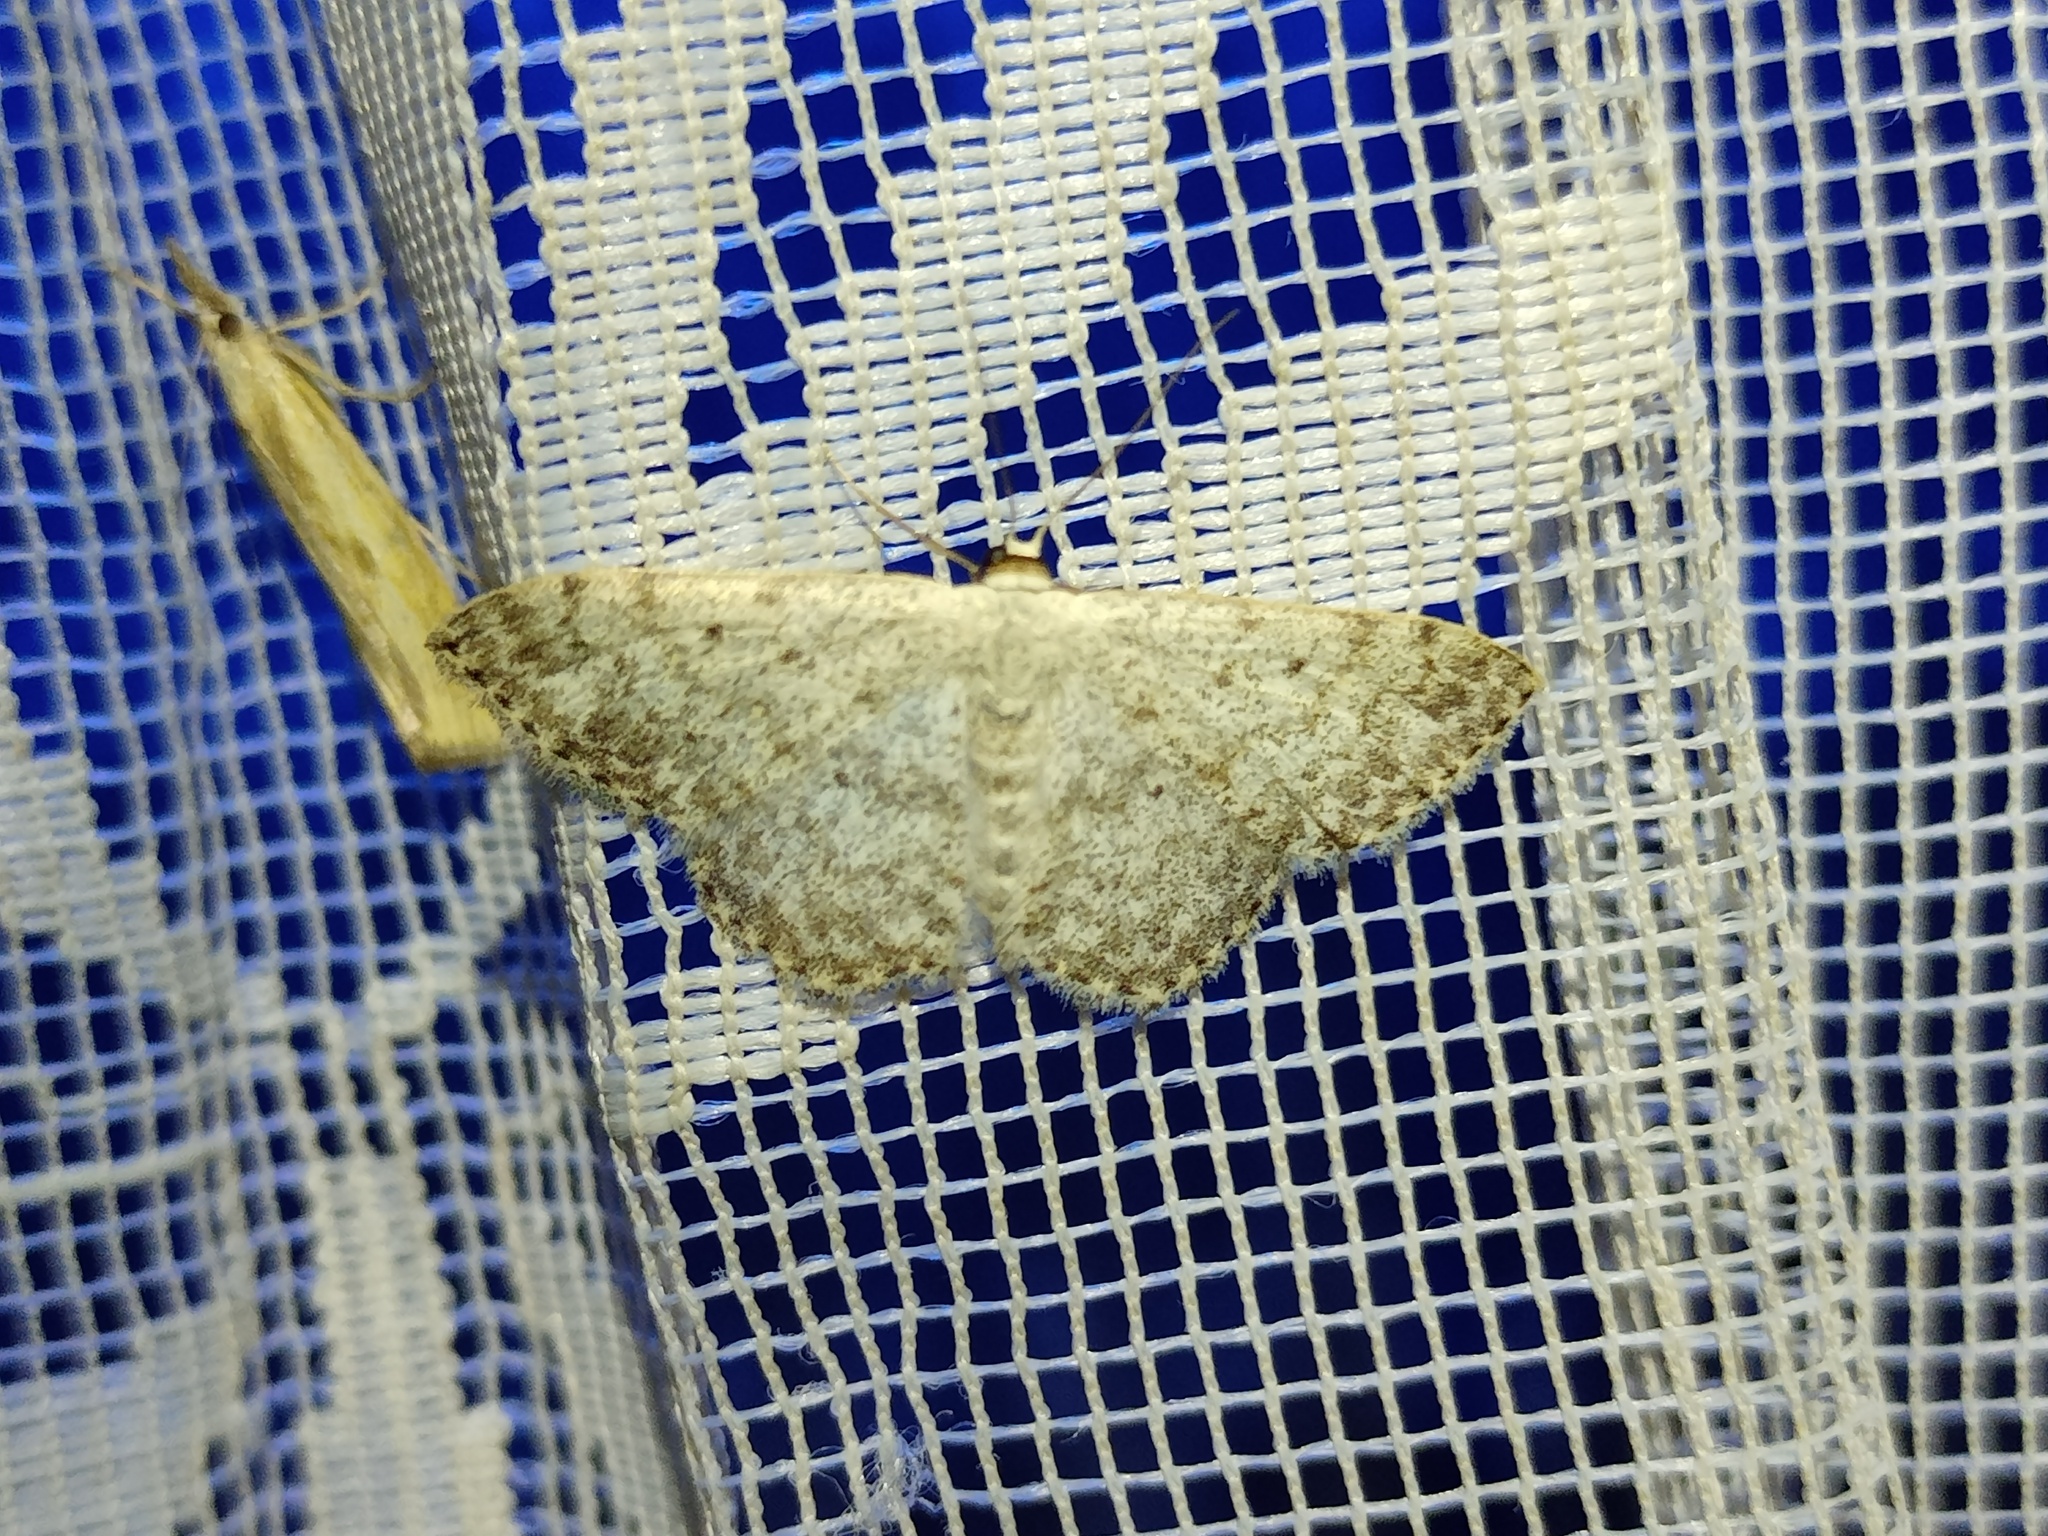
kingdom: Animalia
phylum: Arthropoda
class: Insecta
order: Lepidoptera
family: Geometridae
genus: Scopula
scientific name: Scopula marginepunctata
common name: Mullein wave
